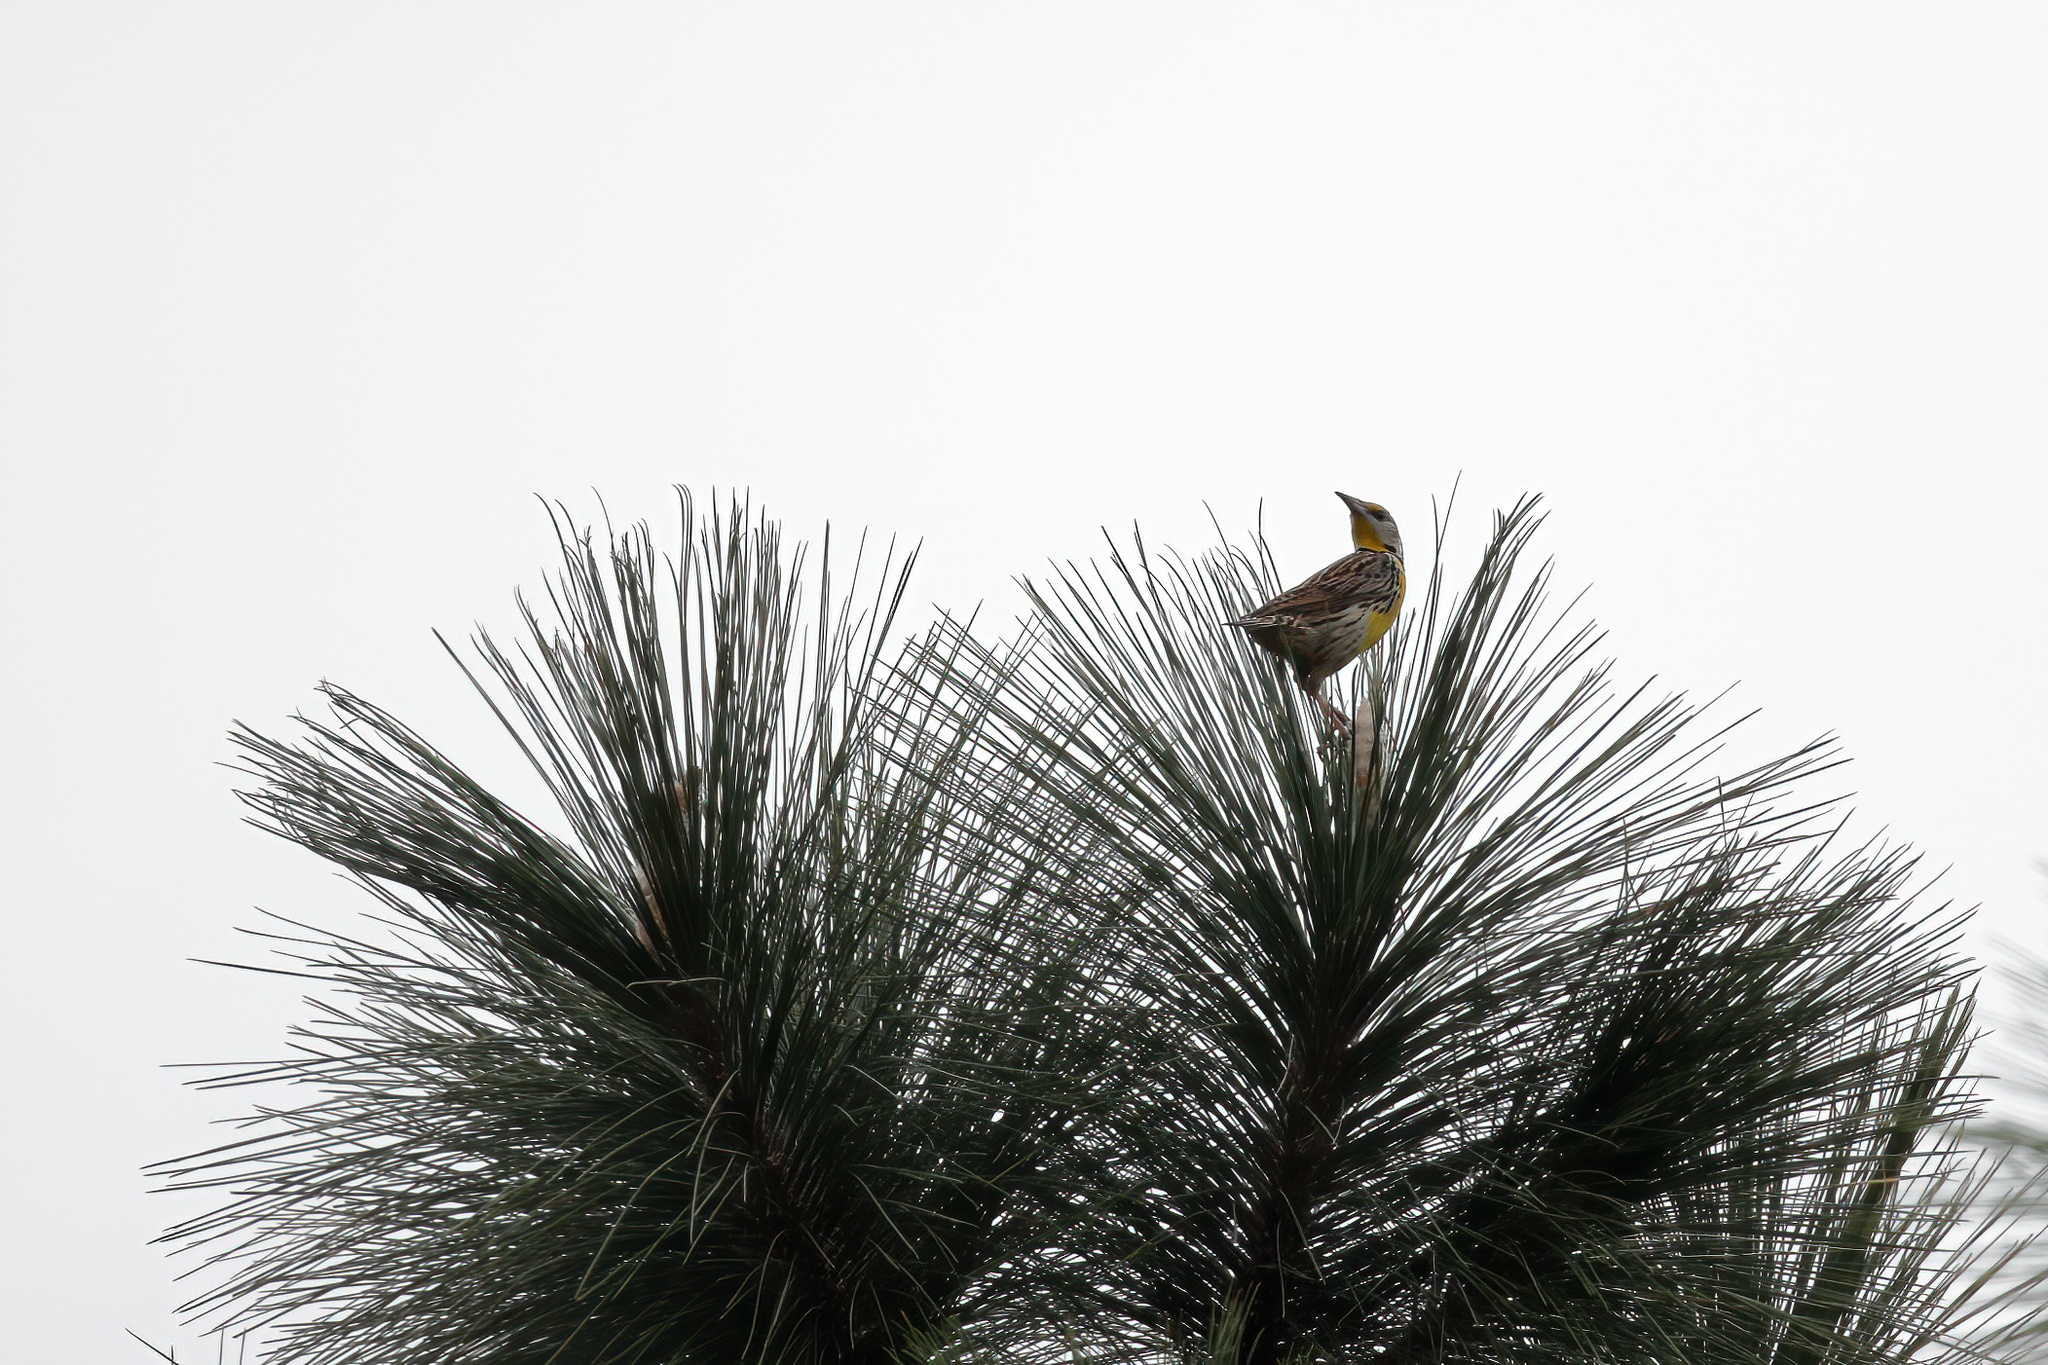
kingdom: Animalia
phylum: Chordata
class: Aves
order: Passeriformes
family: Icteridae
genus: Sturnella
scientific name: Sturnella magna
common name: Eastern meadowlark
